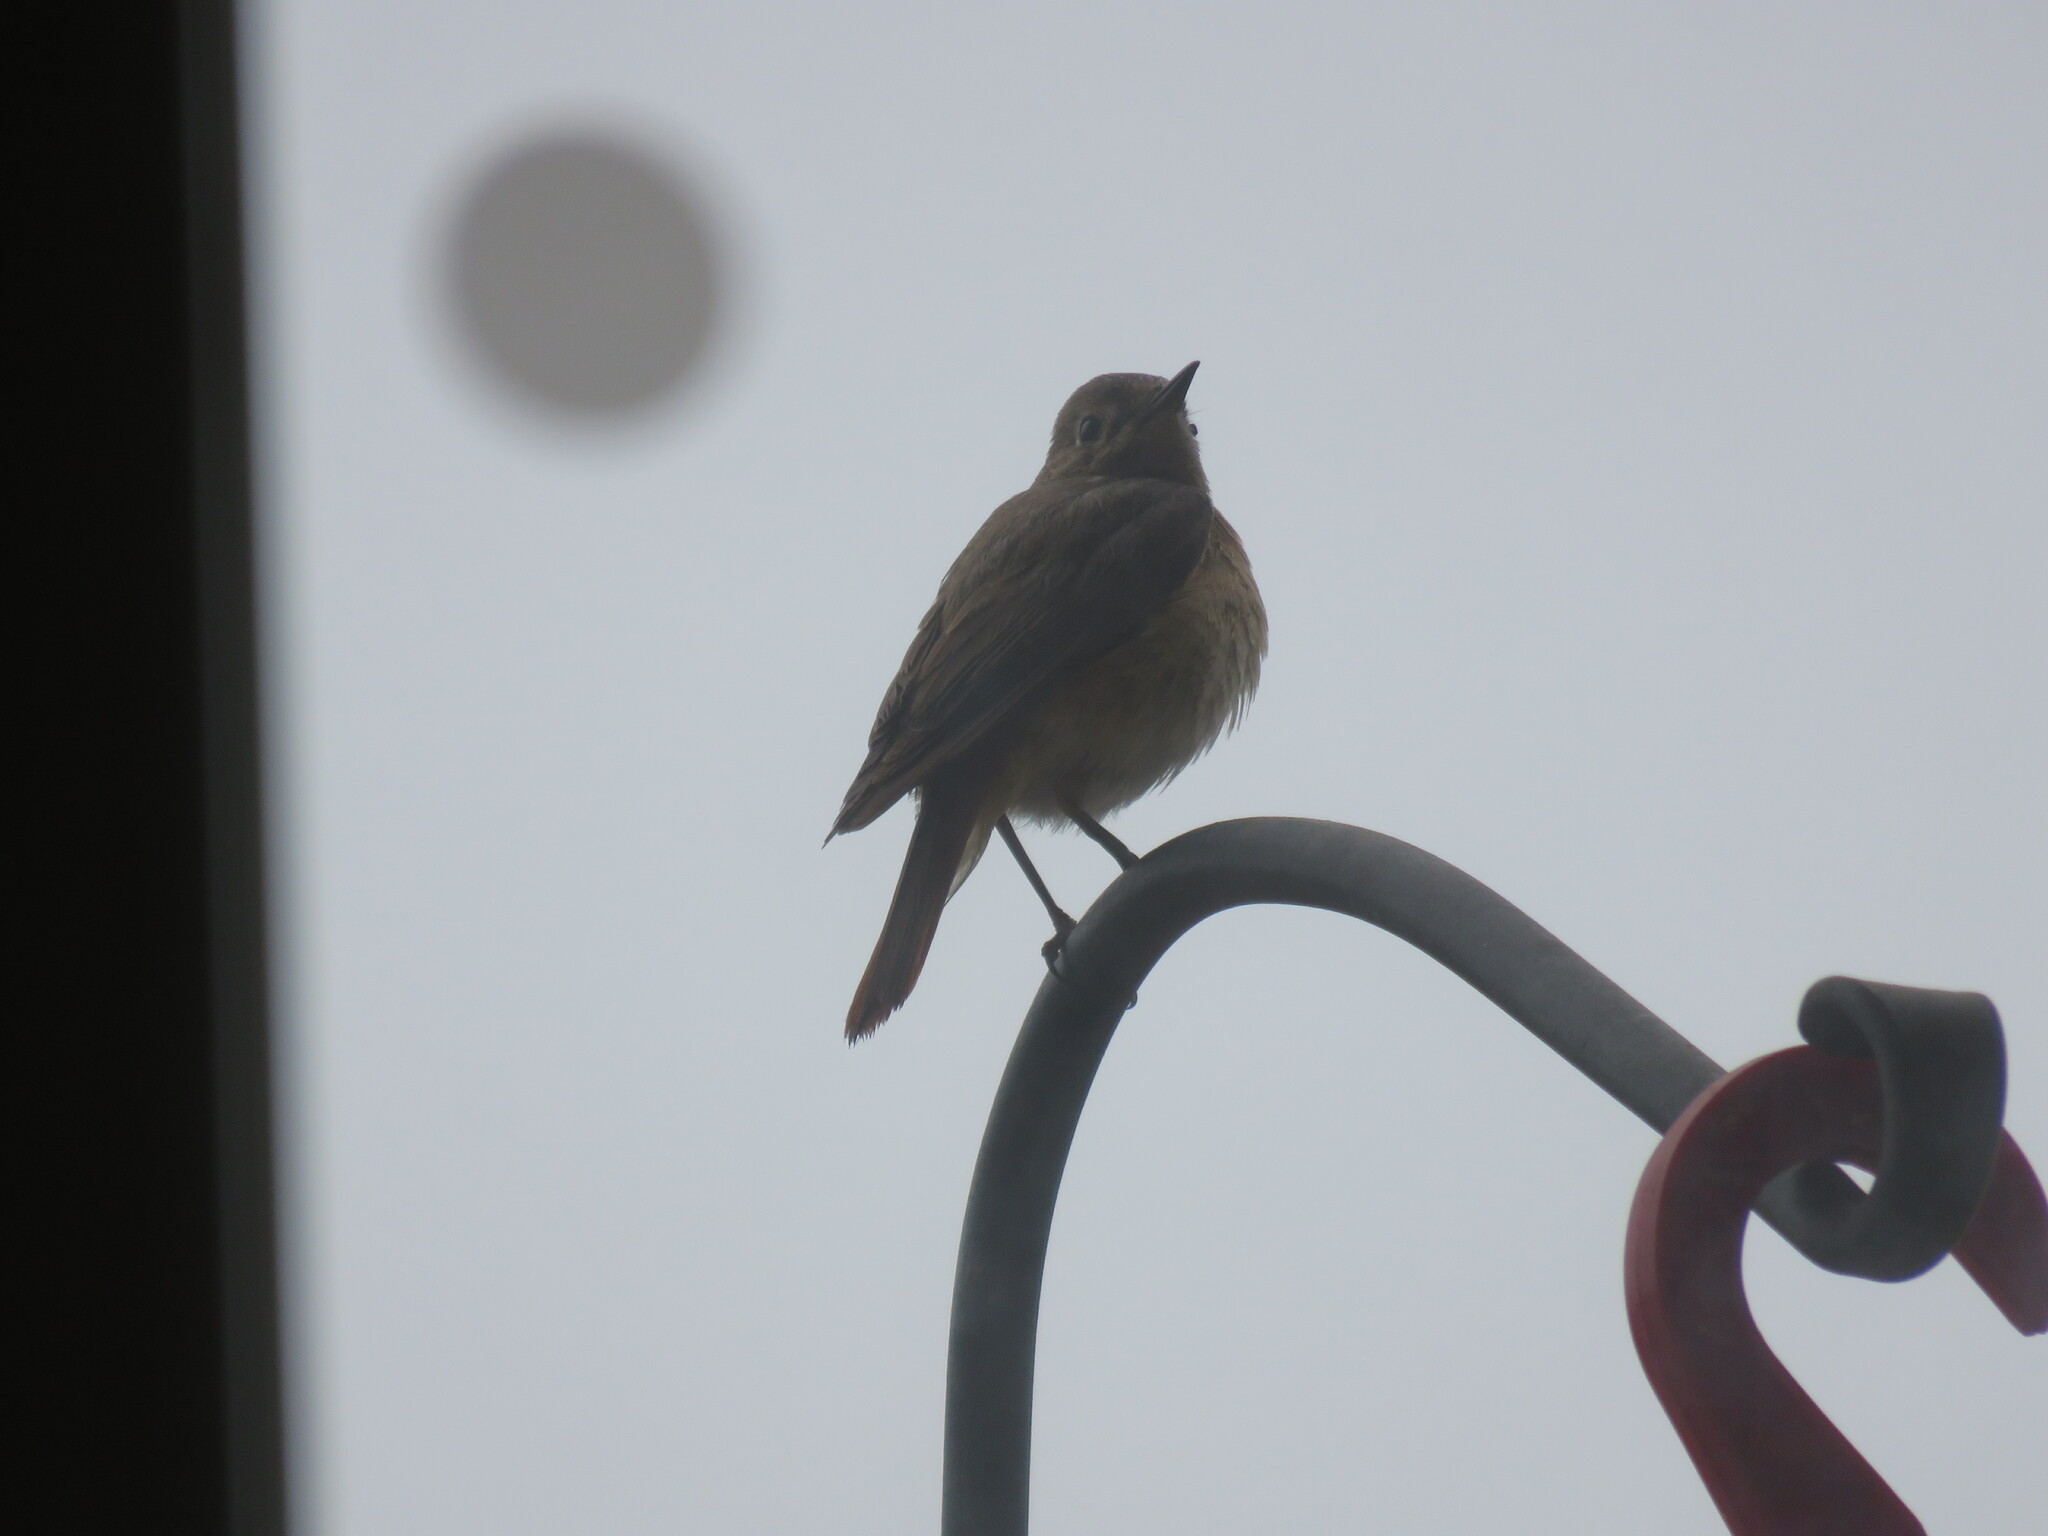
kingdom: Animalia
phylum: Chordata
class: Aves
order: Passeriformes
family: Muscicapidae
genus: Phoenicurus
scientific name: Phoenicurus phoenicurus
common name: Common redstart
